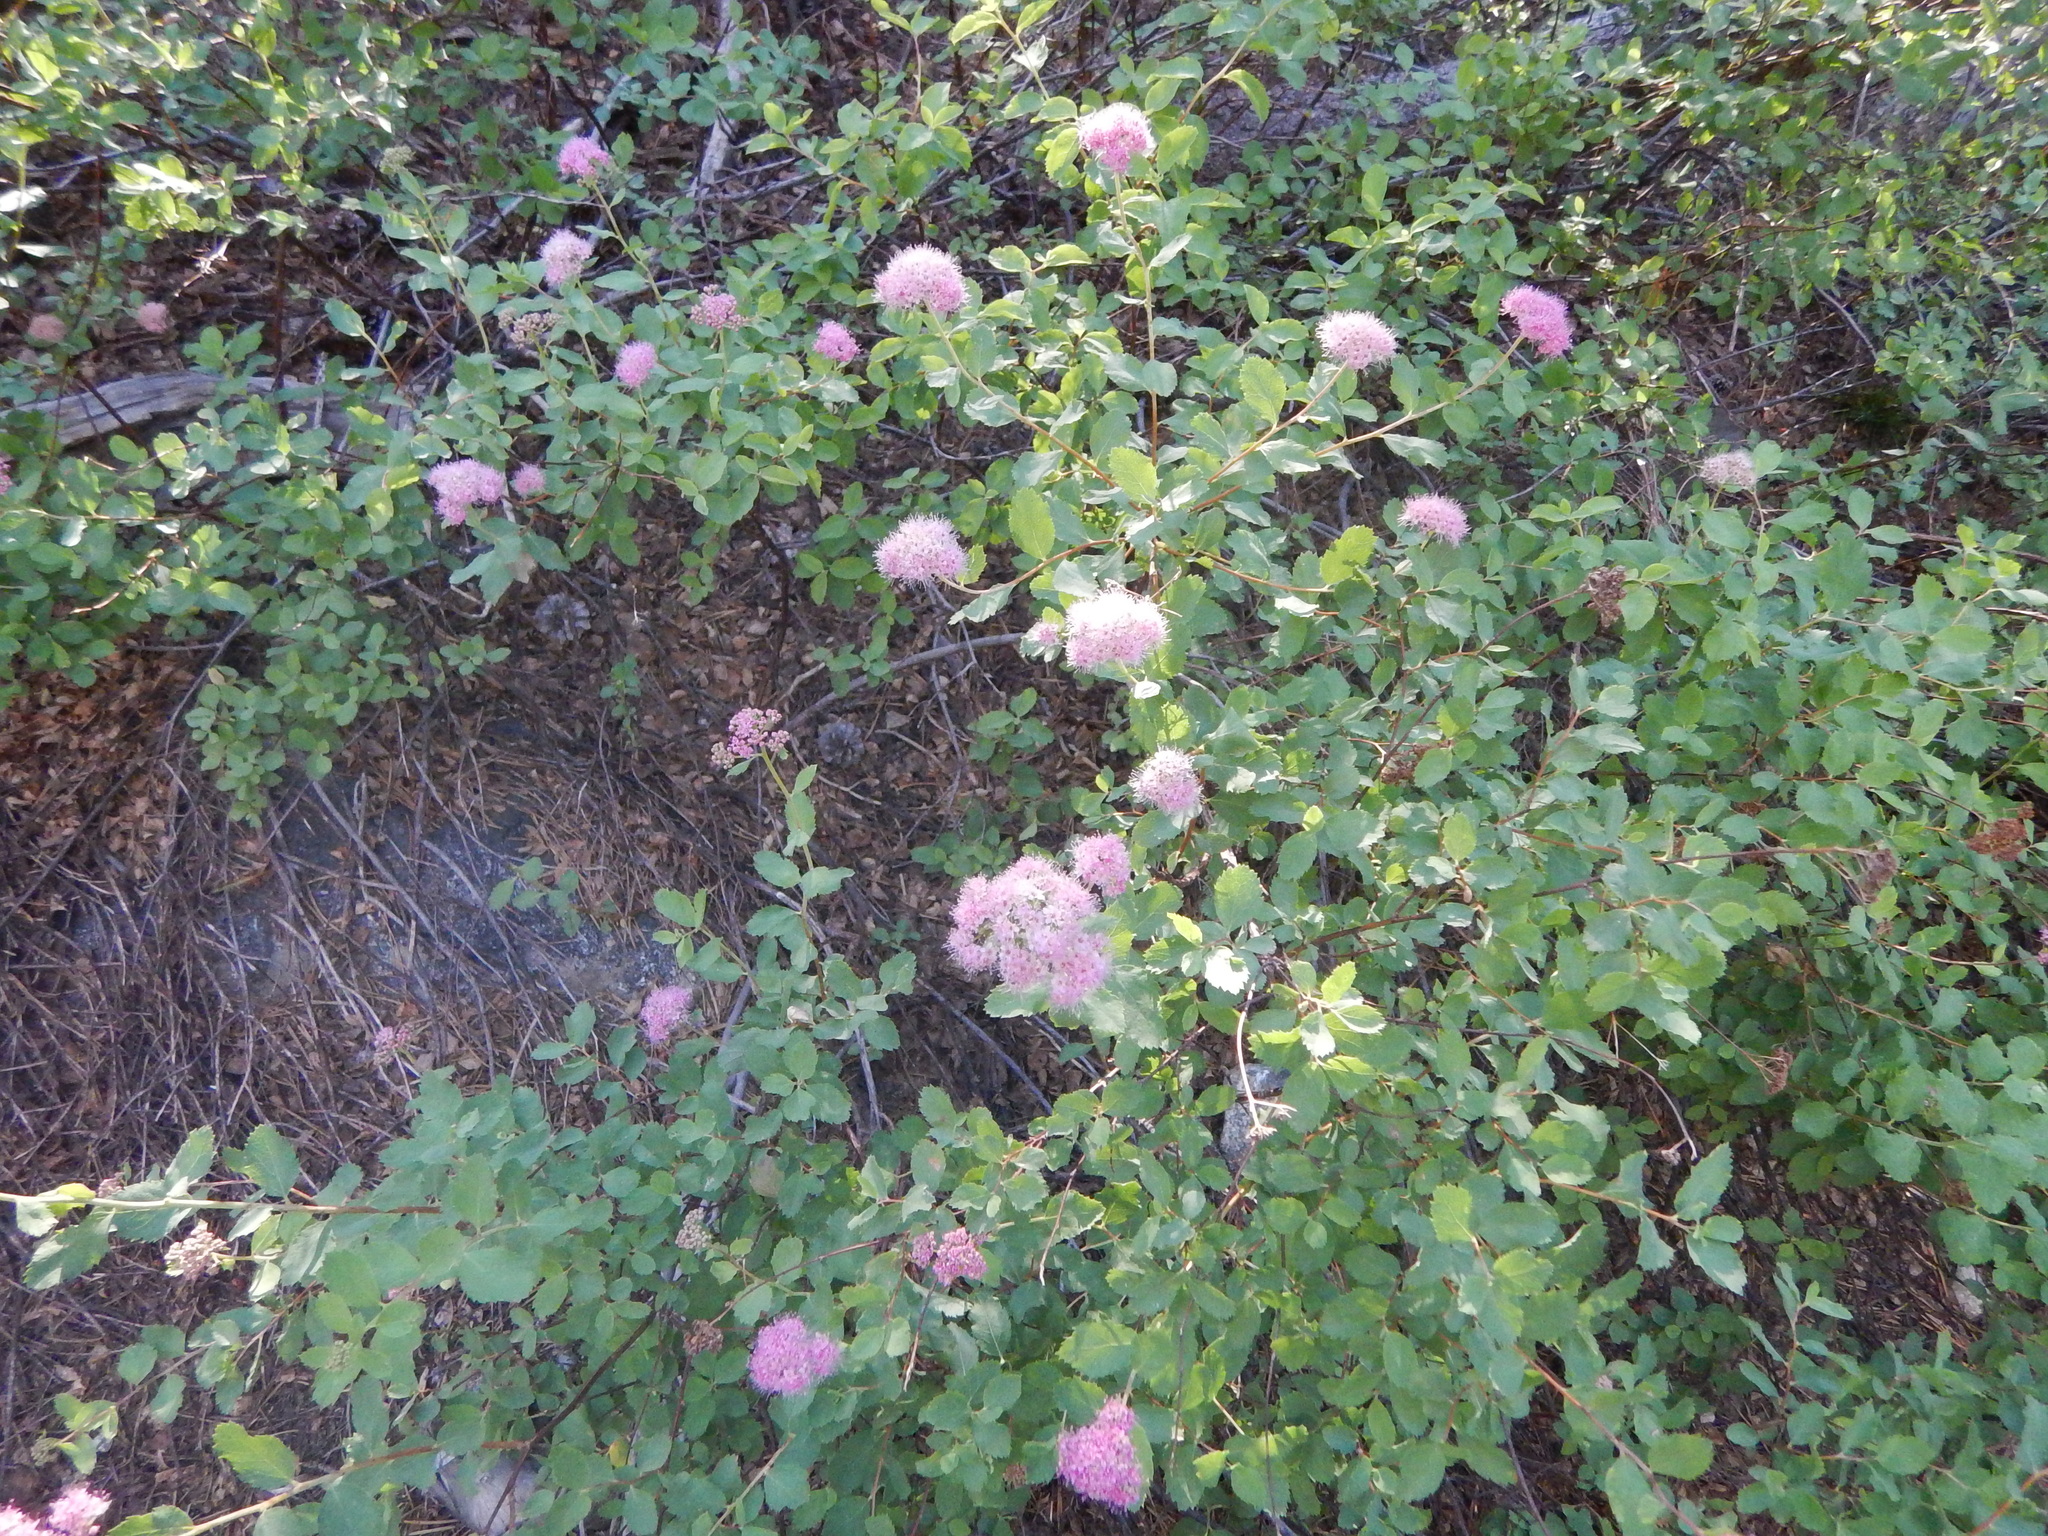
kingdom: Plantae
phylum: Tracheophyta
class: Magnoliopsida
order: Rosales
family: Rosaceae
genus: Spiraea
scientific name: Spiraea splendens
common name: Subalpine meadowsweet
